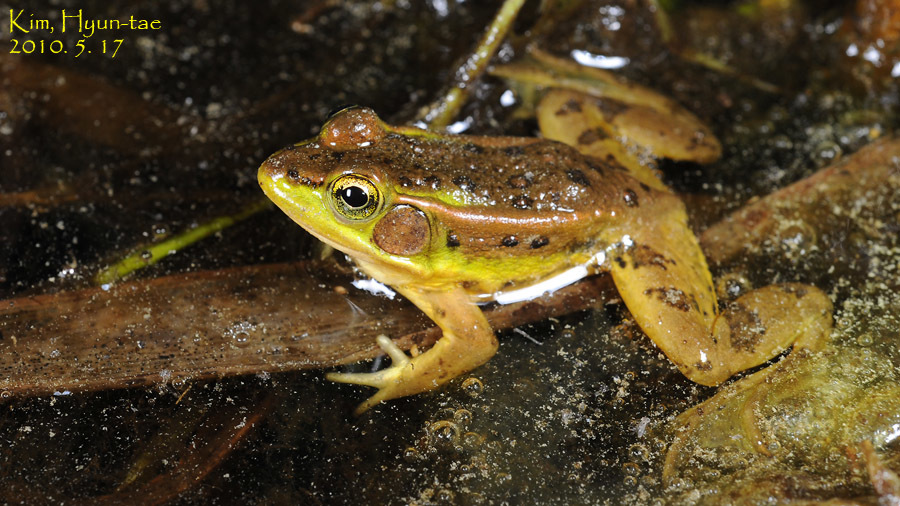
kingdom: Animalia
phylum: Chordata
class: Amphibia
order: Anura
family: Ranidae
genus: Pelophylax
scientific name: Pelophylax chosenicus
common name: Gold-spotted pond frog
